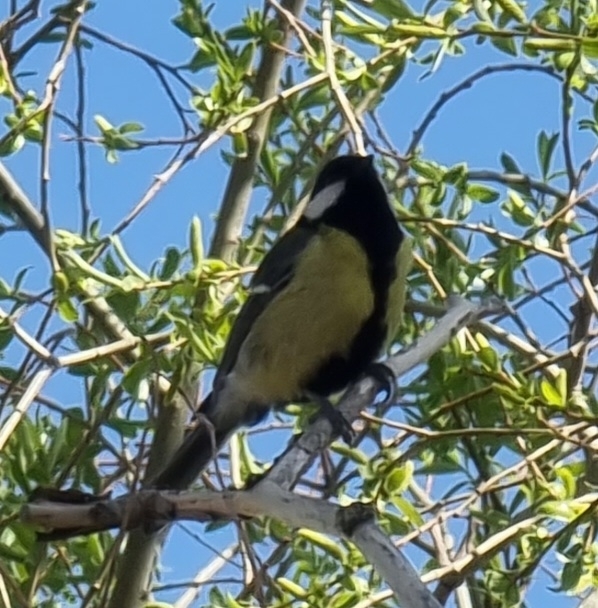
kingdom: Animalia
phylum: Chordata
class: Aves
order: Passeriformes
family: Paridae
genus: Parus
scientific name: Parus major
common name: Great tit
